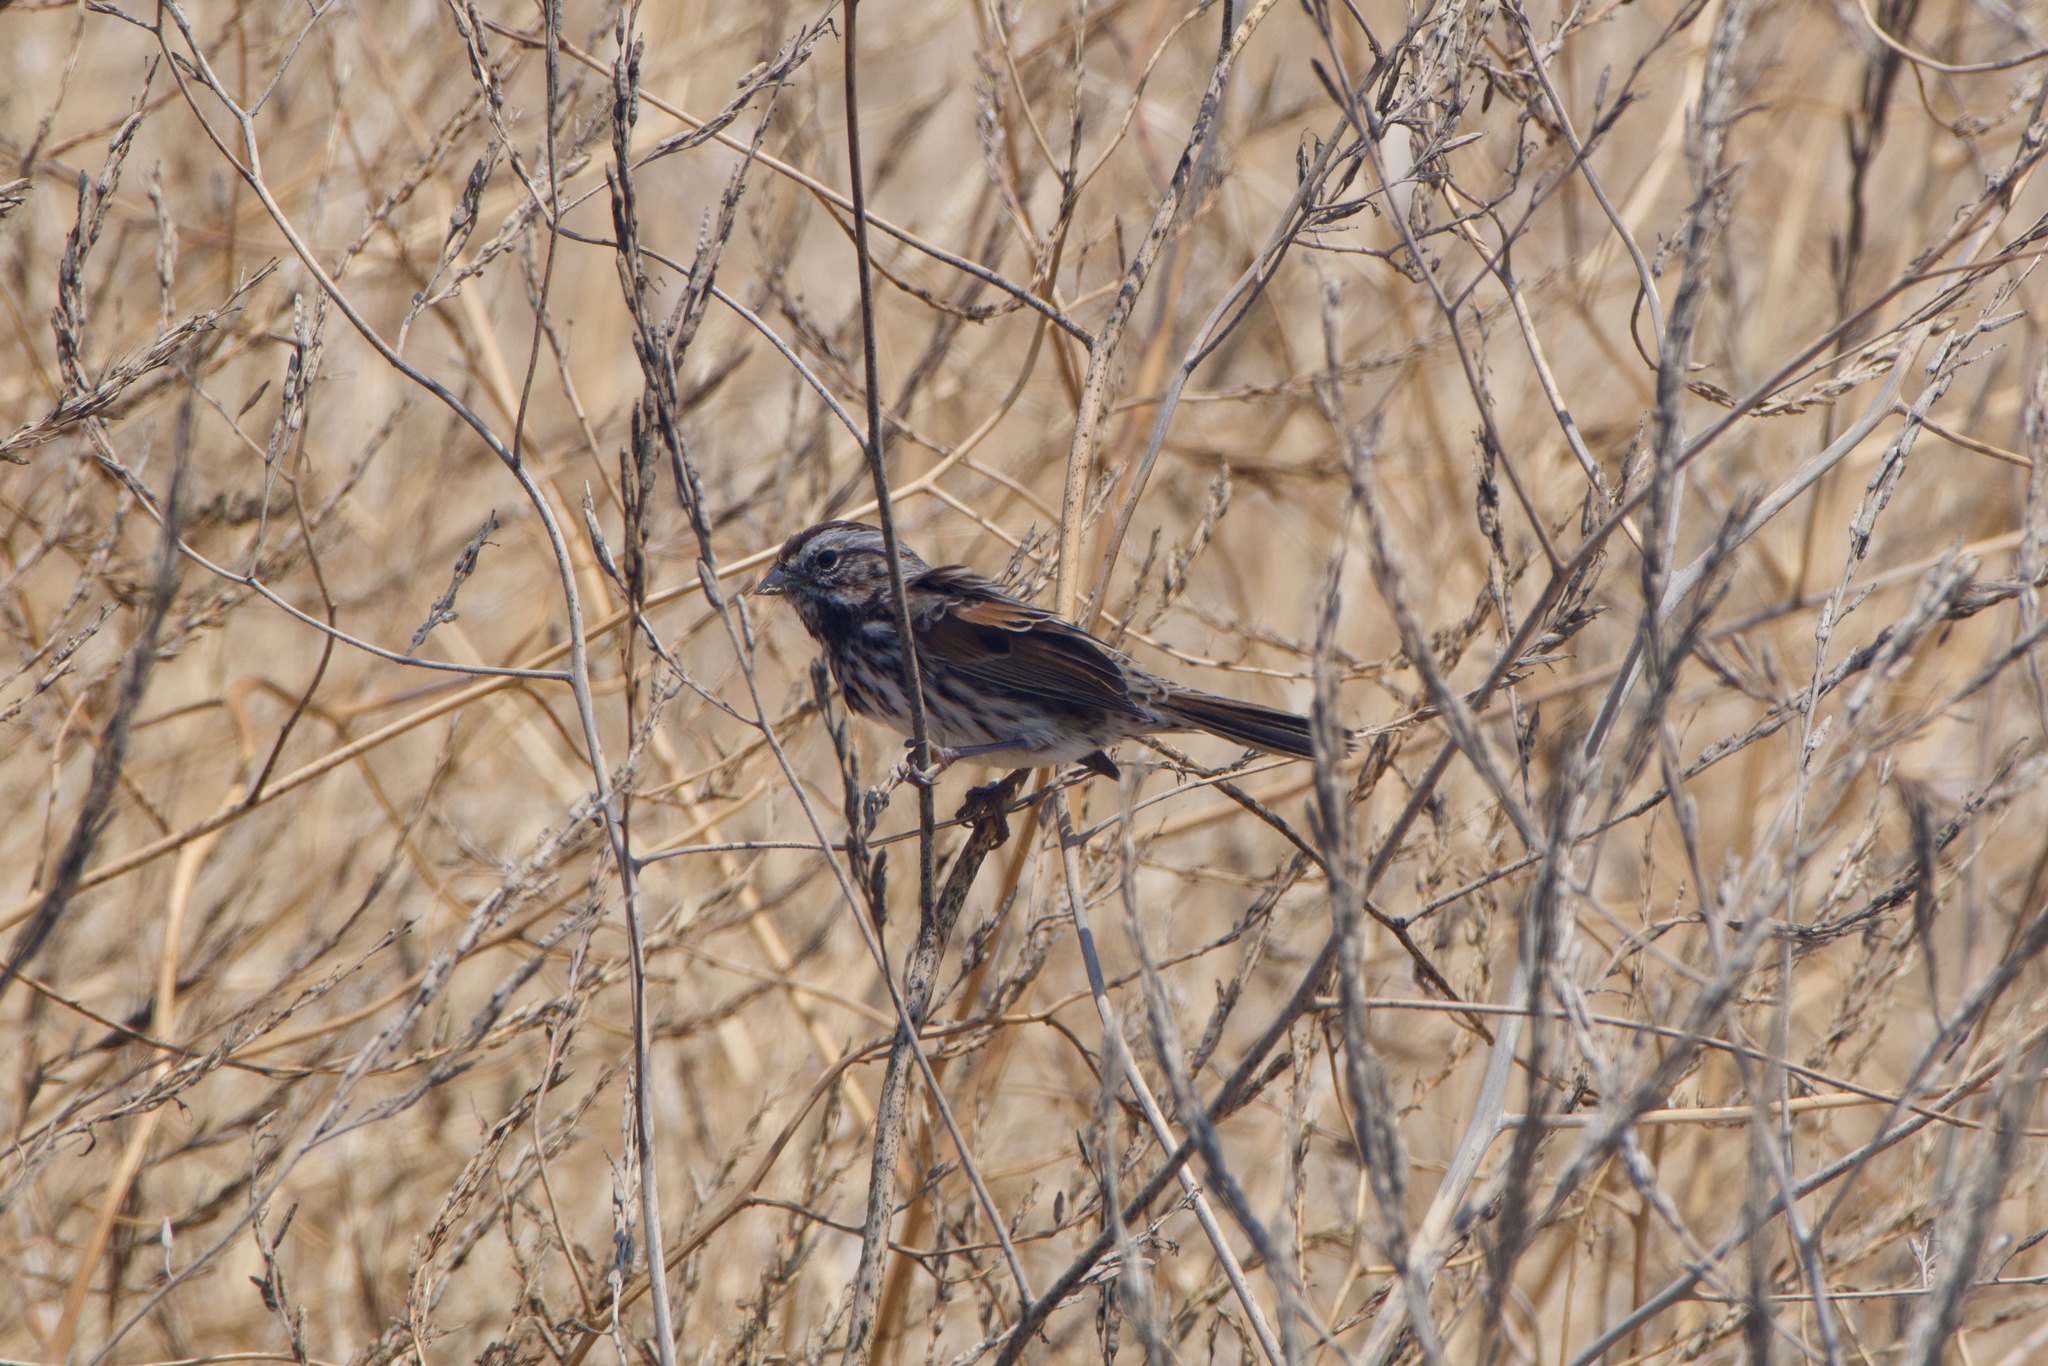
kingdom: Animalia
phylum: Chordata
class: Aves
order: Passeriformes
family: Passerellidae
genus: Melospiza
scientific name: Melospiza melodia
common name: Song sparrow
